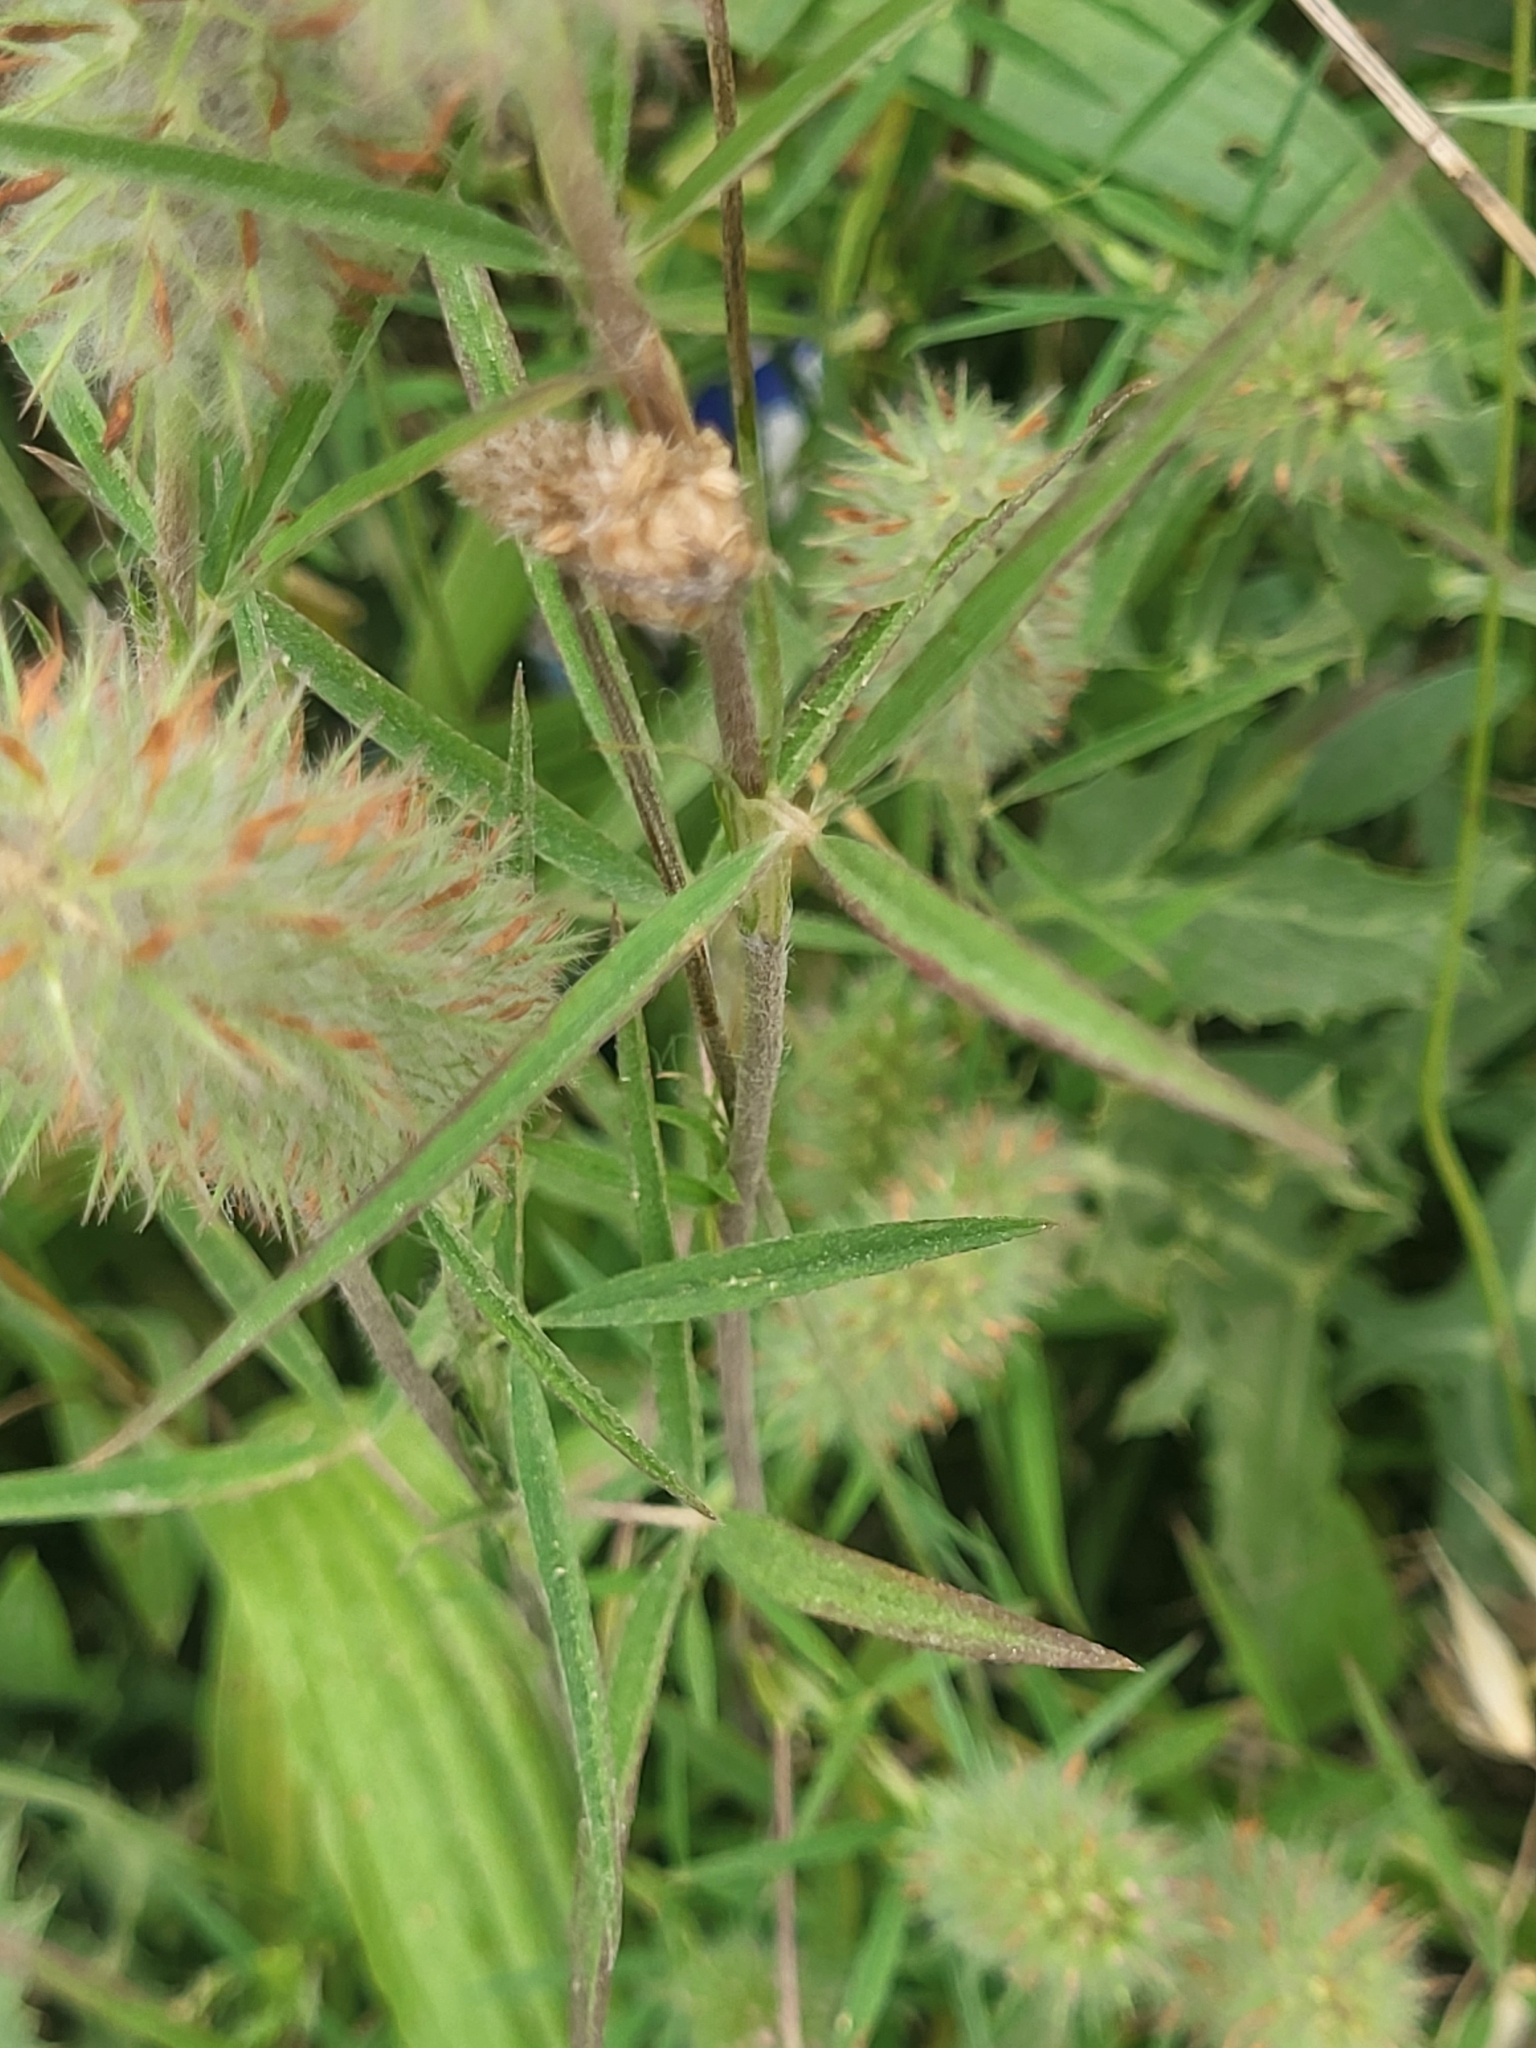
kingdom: Plantae
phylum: Tracheophyta
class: Magnoliopsida
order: Fabales
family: Fabaceae
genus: Trifolium
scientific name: Trifolium angustifolium
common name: Narrow clover
